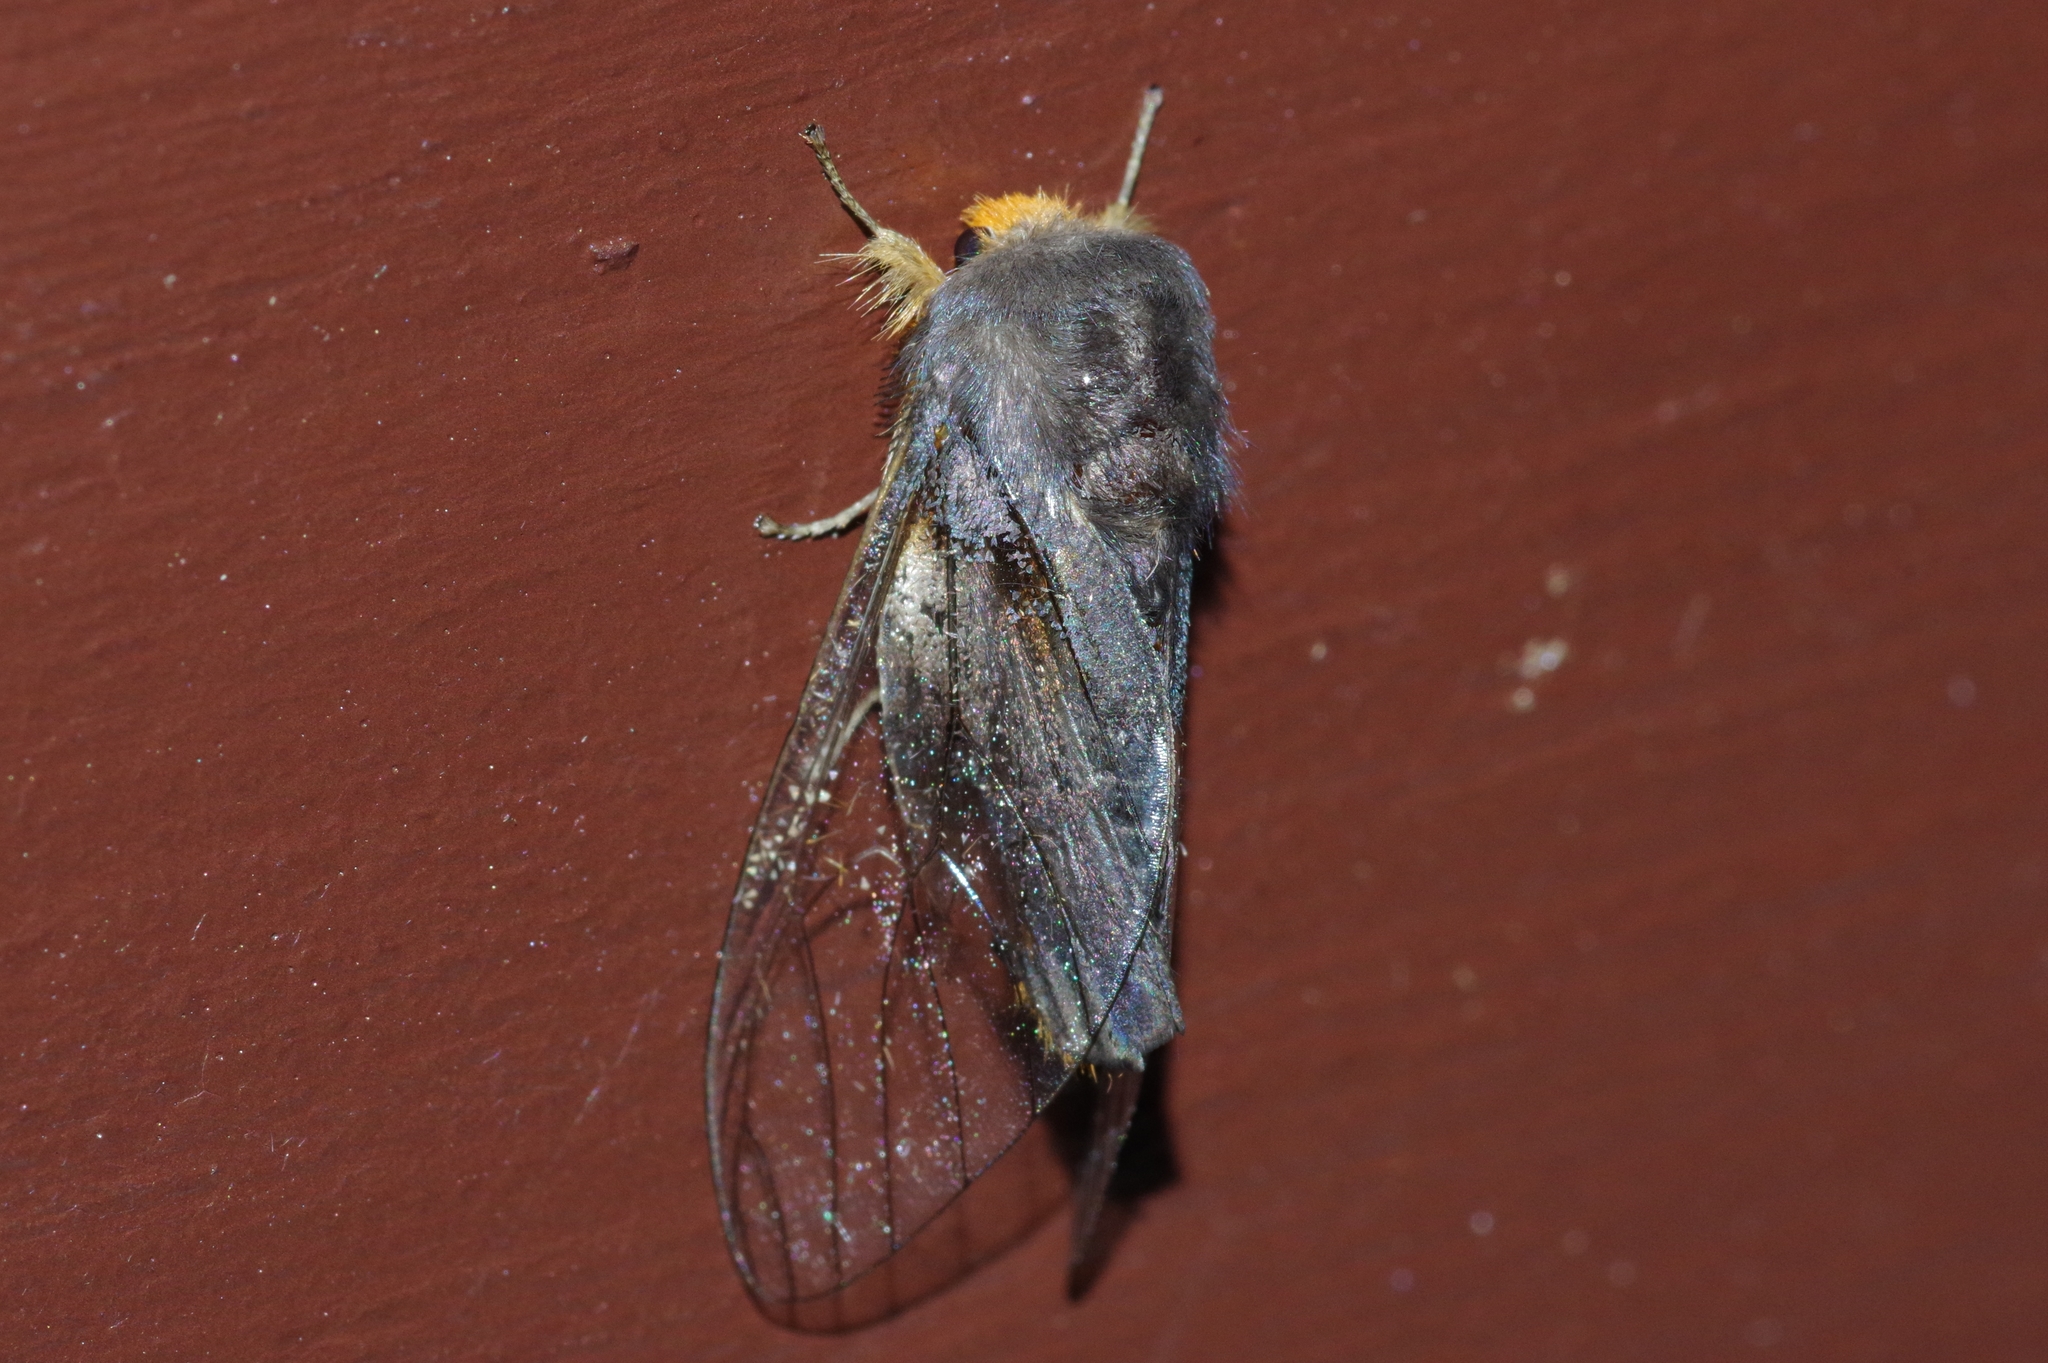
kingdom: Animalia
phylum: Arthropoda
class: Insecta
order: Lepidoptera
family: Erebidae
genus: Perina
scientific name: Perina nuda
